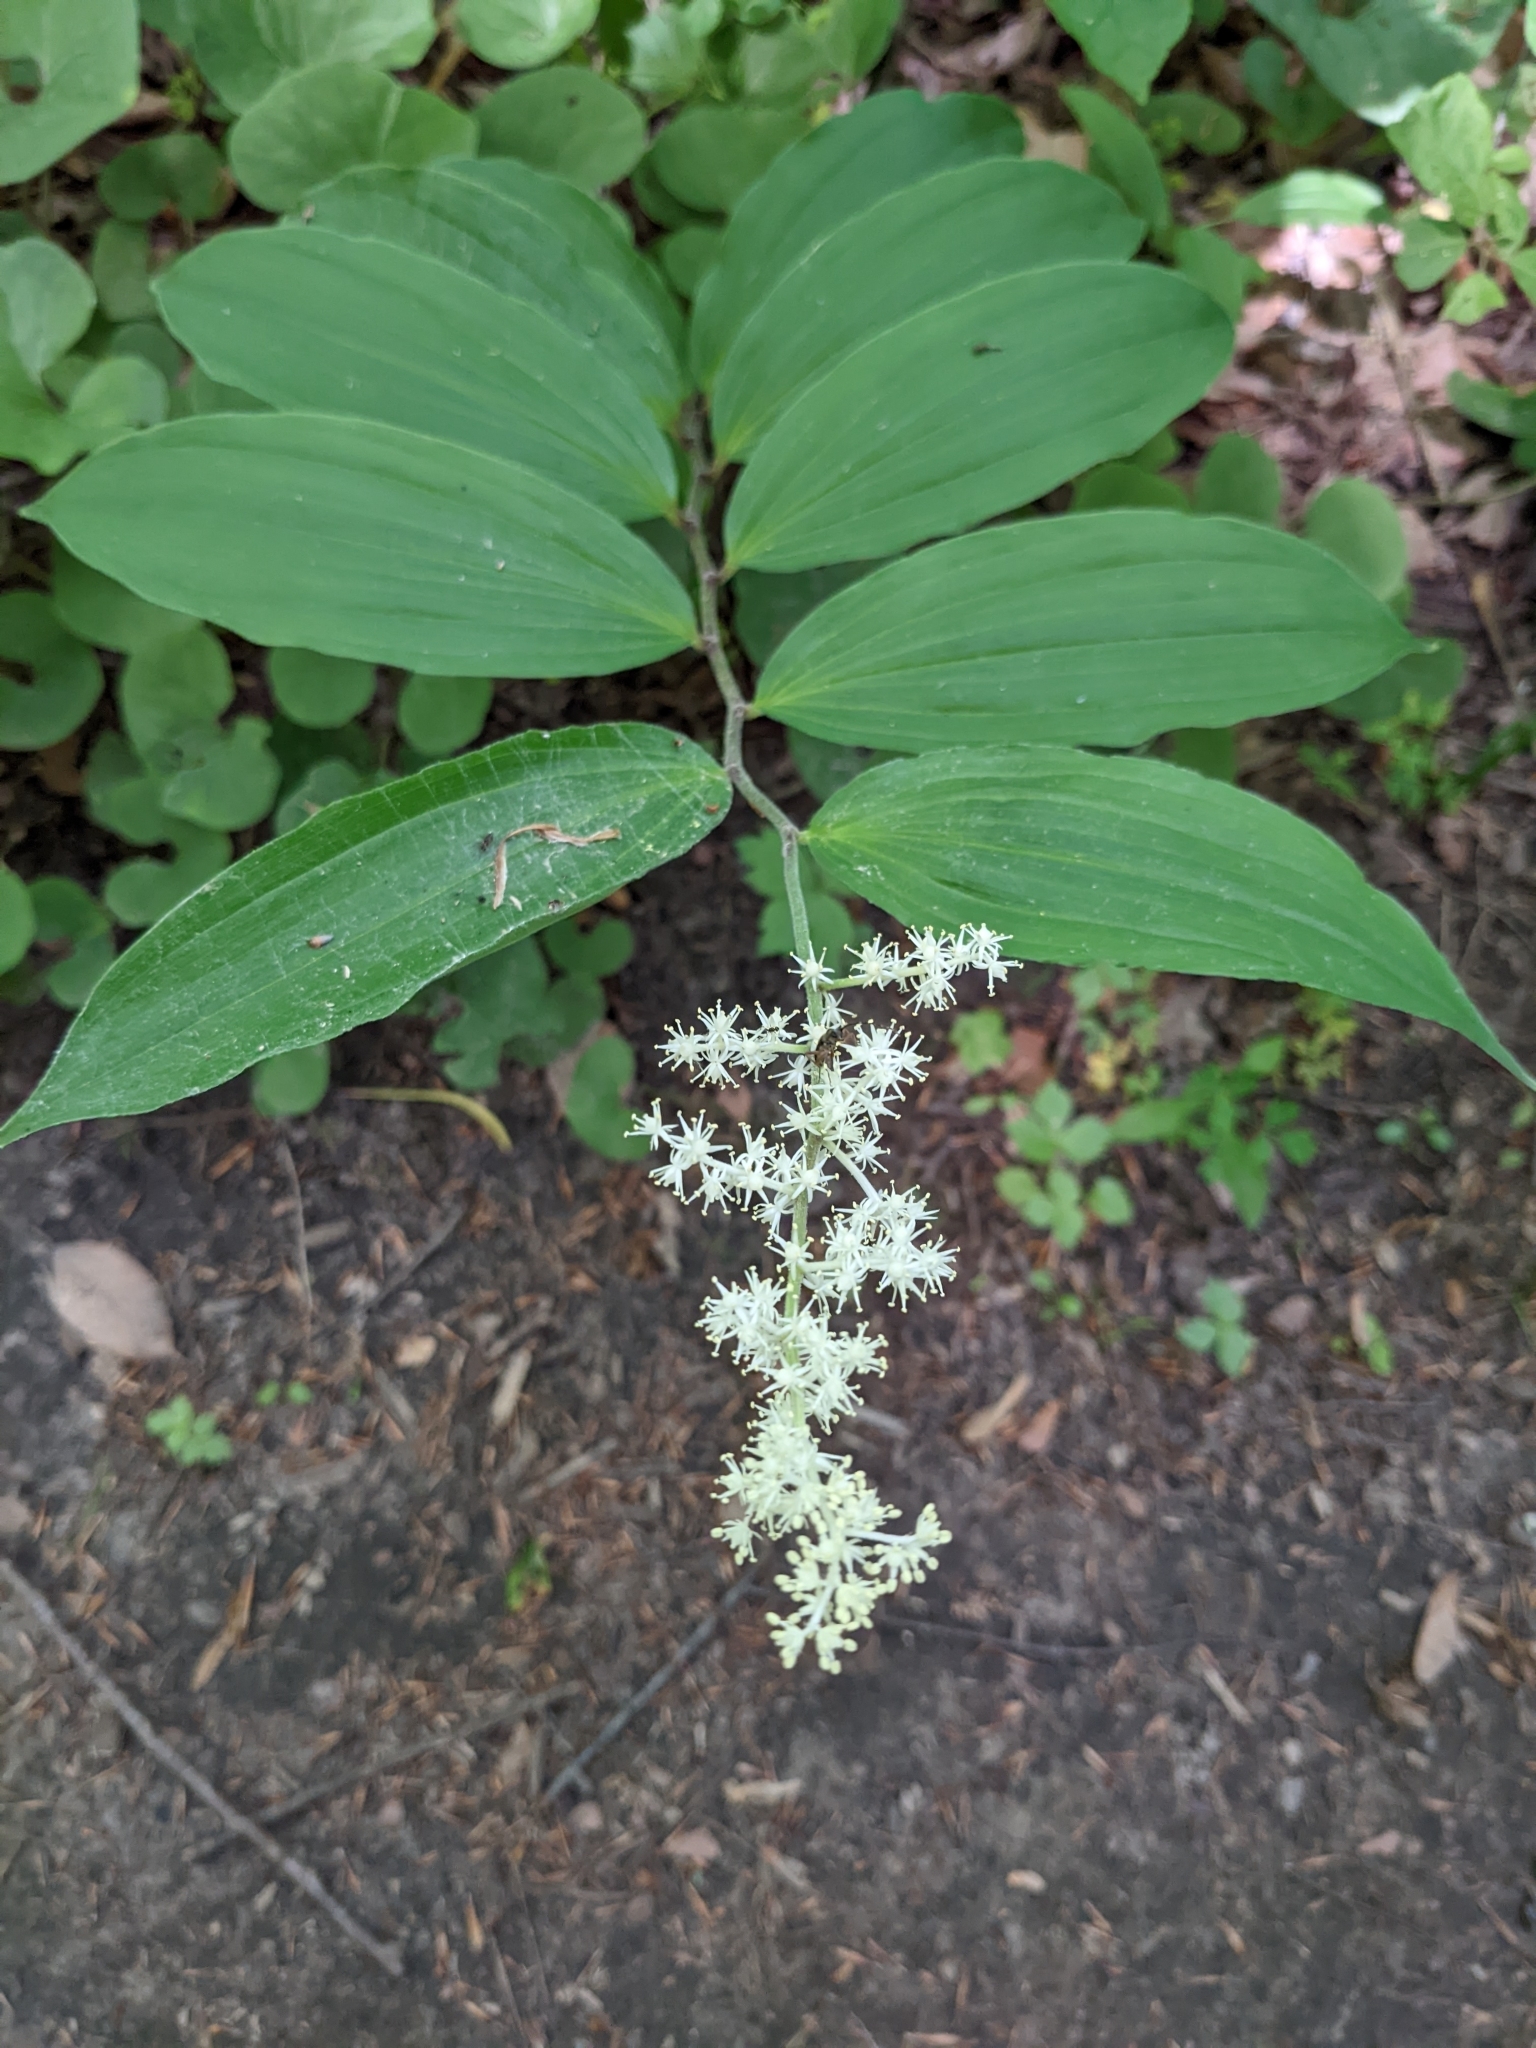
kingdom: Plantae
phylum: Tracheophyta
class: Liliopsida
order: Asparagales
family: Asparagaceae
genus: Maianthemum
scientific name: Maianthemum racemosum
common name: False spikenard
